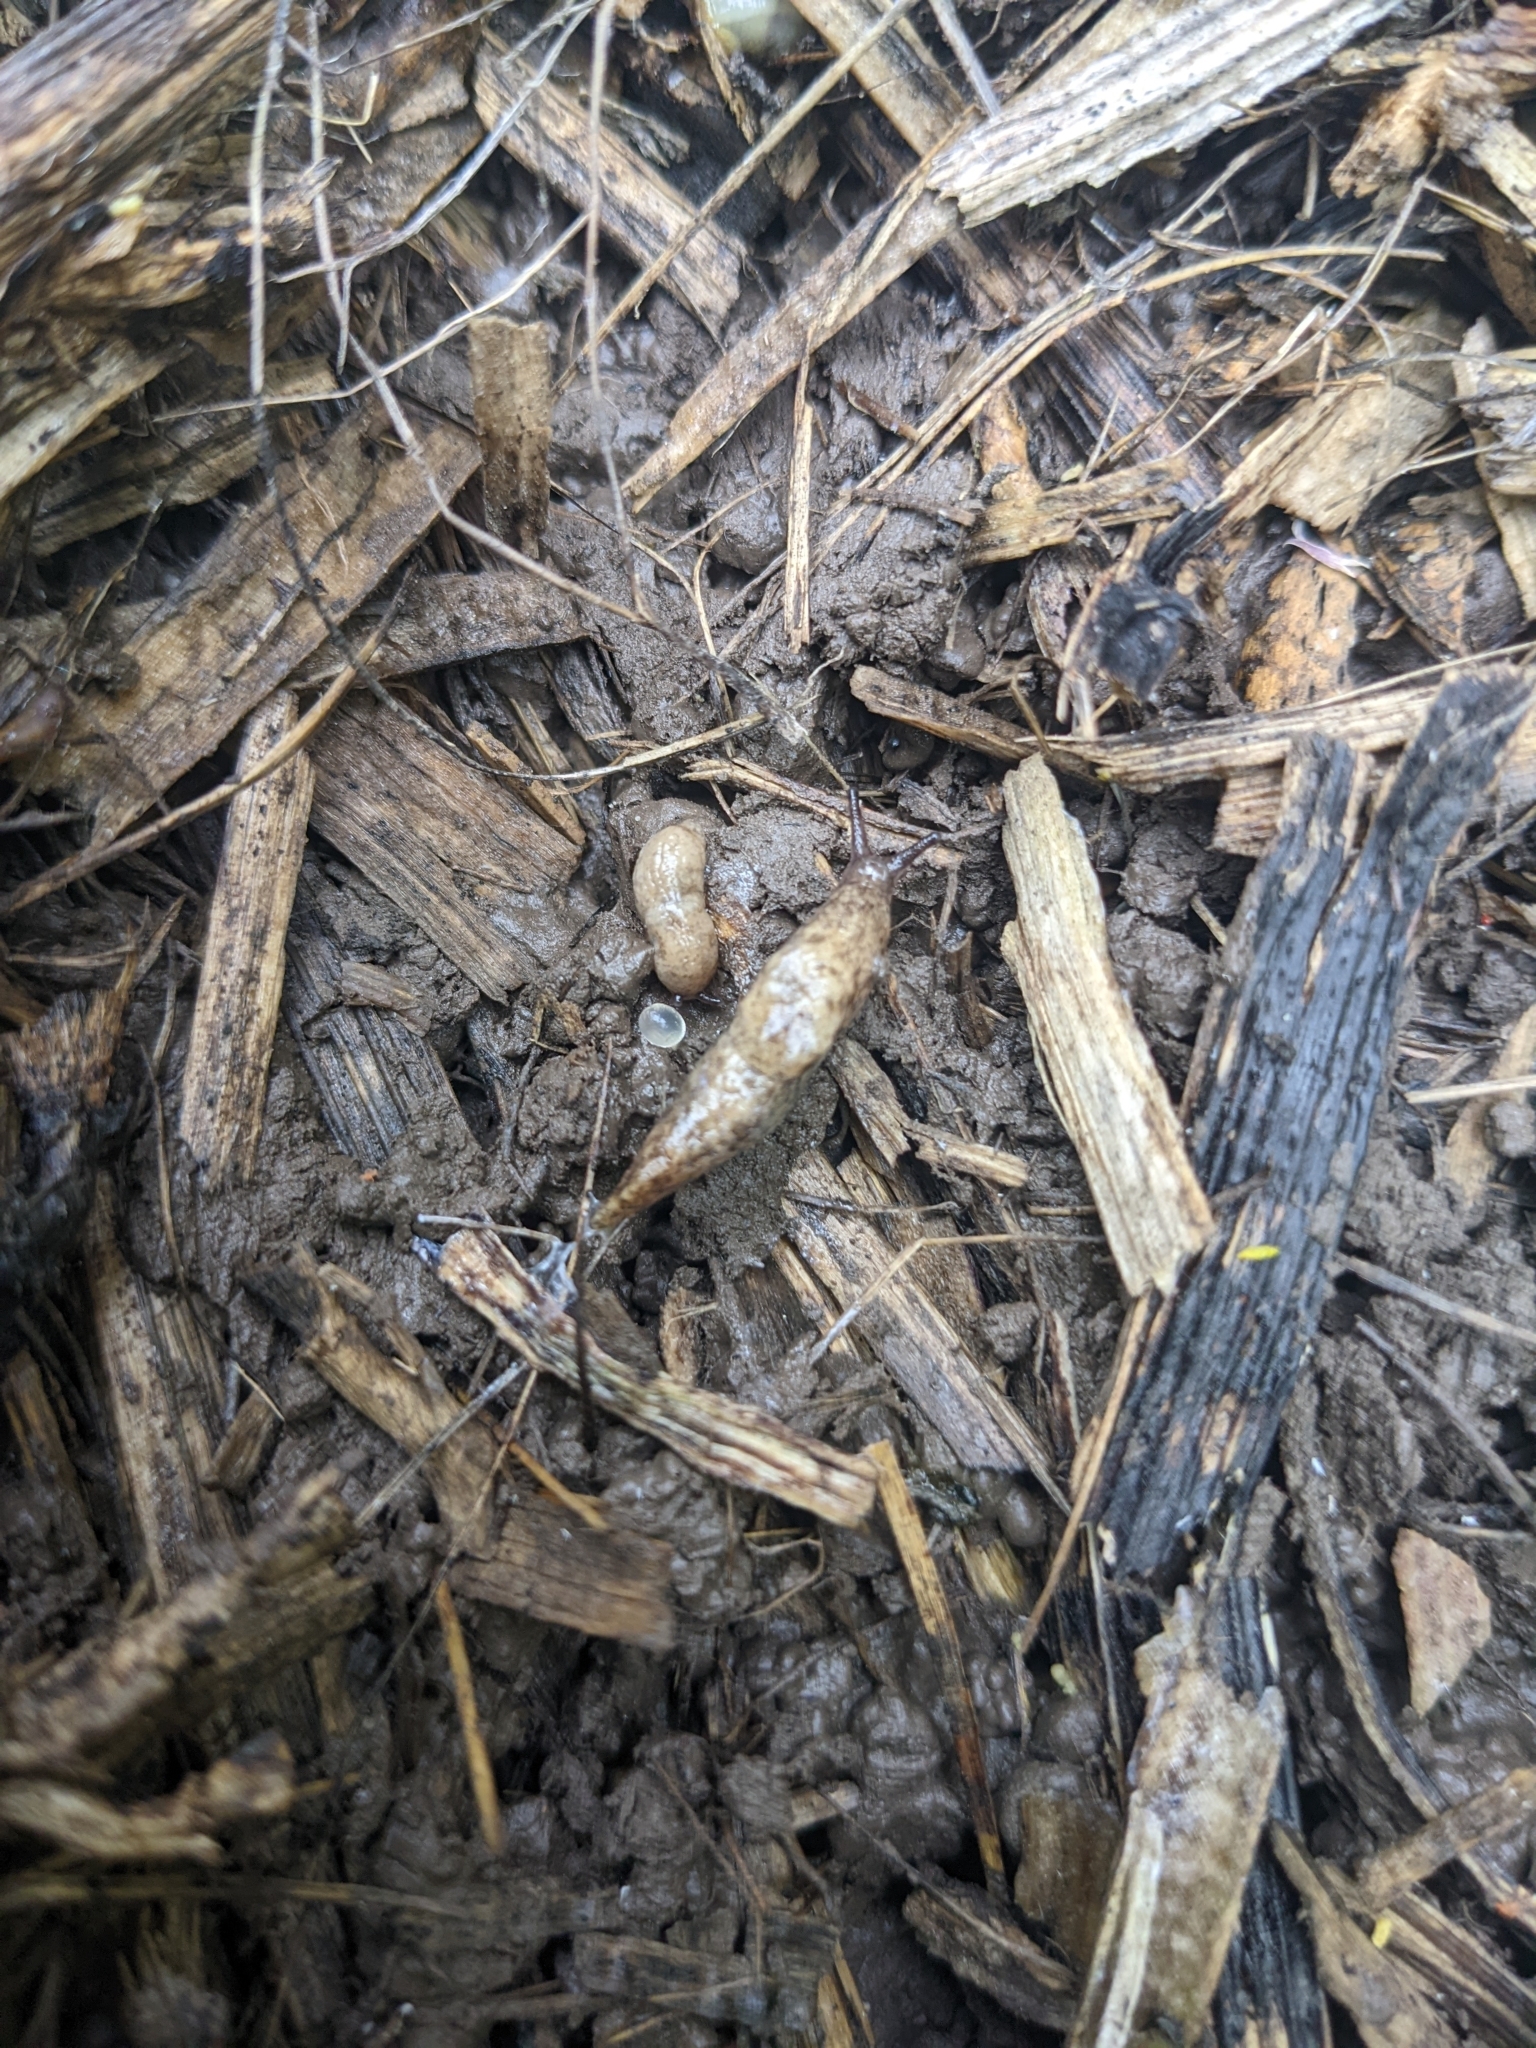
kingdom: Animalia
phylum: Mollusca
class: Gastropoda
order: Stylommatophora
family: Agriolimacidae
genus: Deroceras
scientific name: Deroceras reticulatum
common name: Gray field slug
